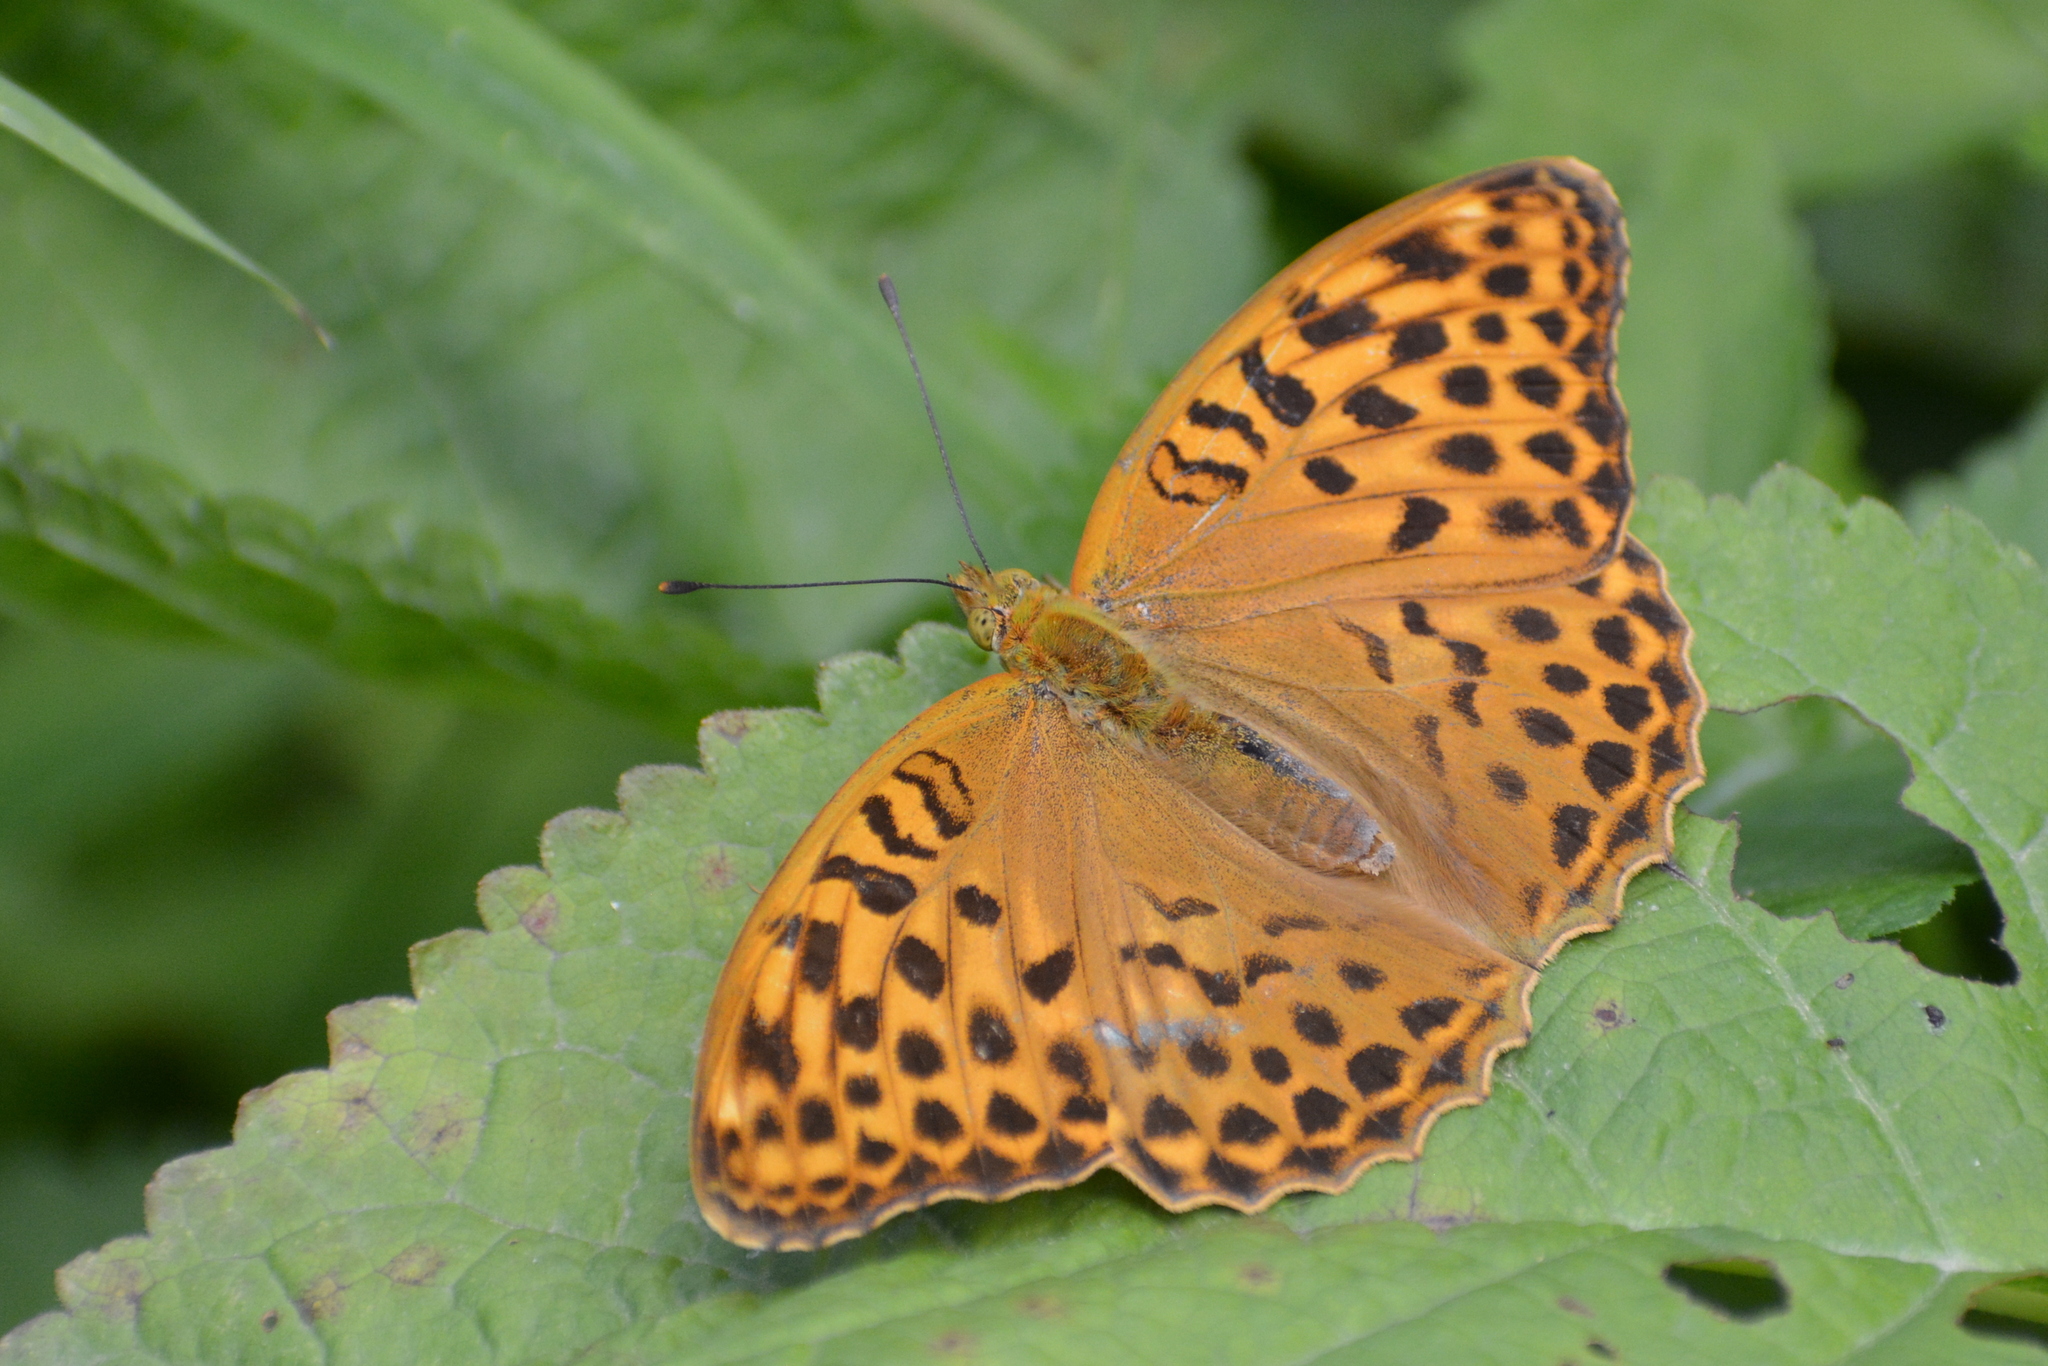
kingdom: Animalia
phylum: Arthropoda
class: Insecta
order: Lepidoptera
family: Nymphalidae
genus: Argynnis
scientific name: Argynnis paphia
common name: Silver-washed fritillary
